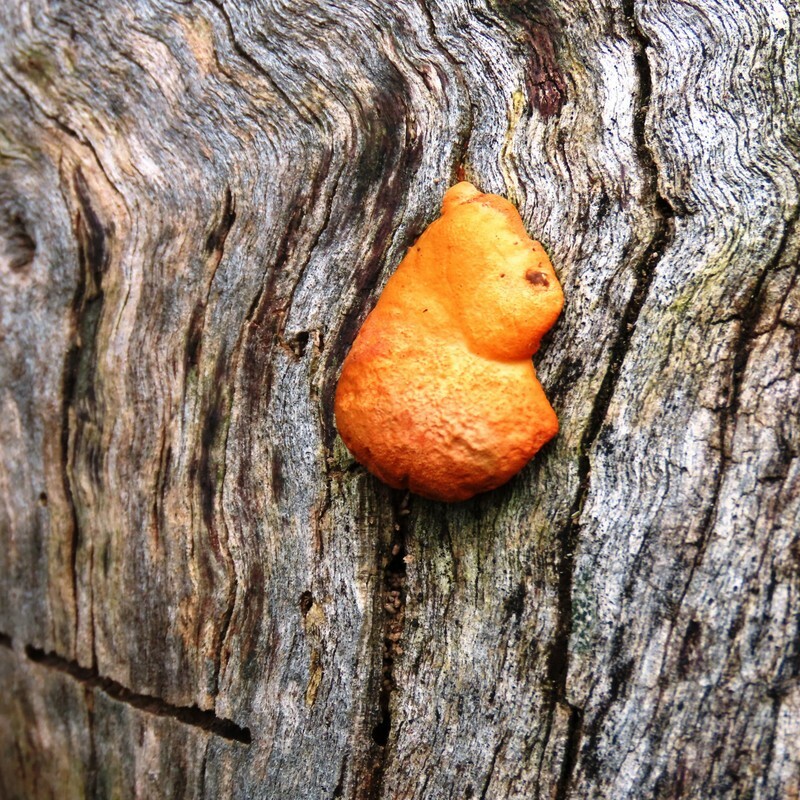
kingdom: Fungi
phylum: Basidiomycota
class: Agaricomycetes
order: Polyporales
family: Polyporaceae
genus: Trametes
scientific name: Trametes coccinea
